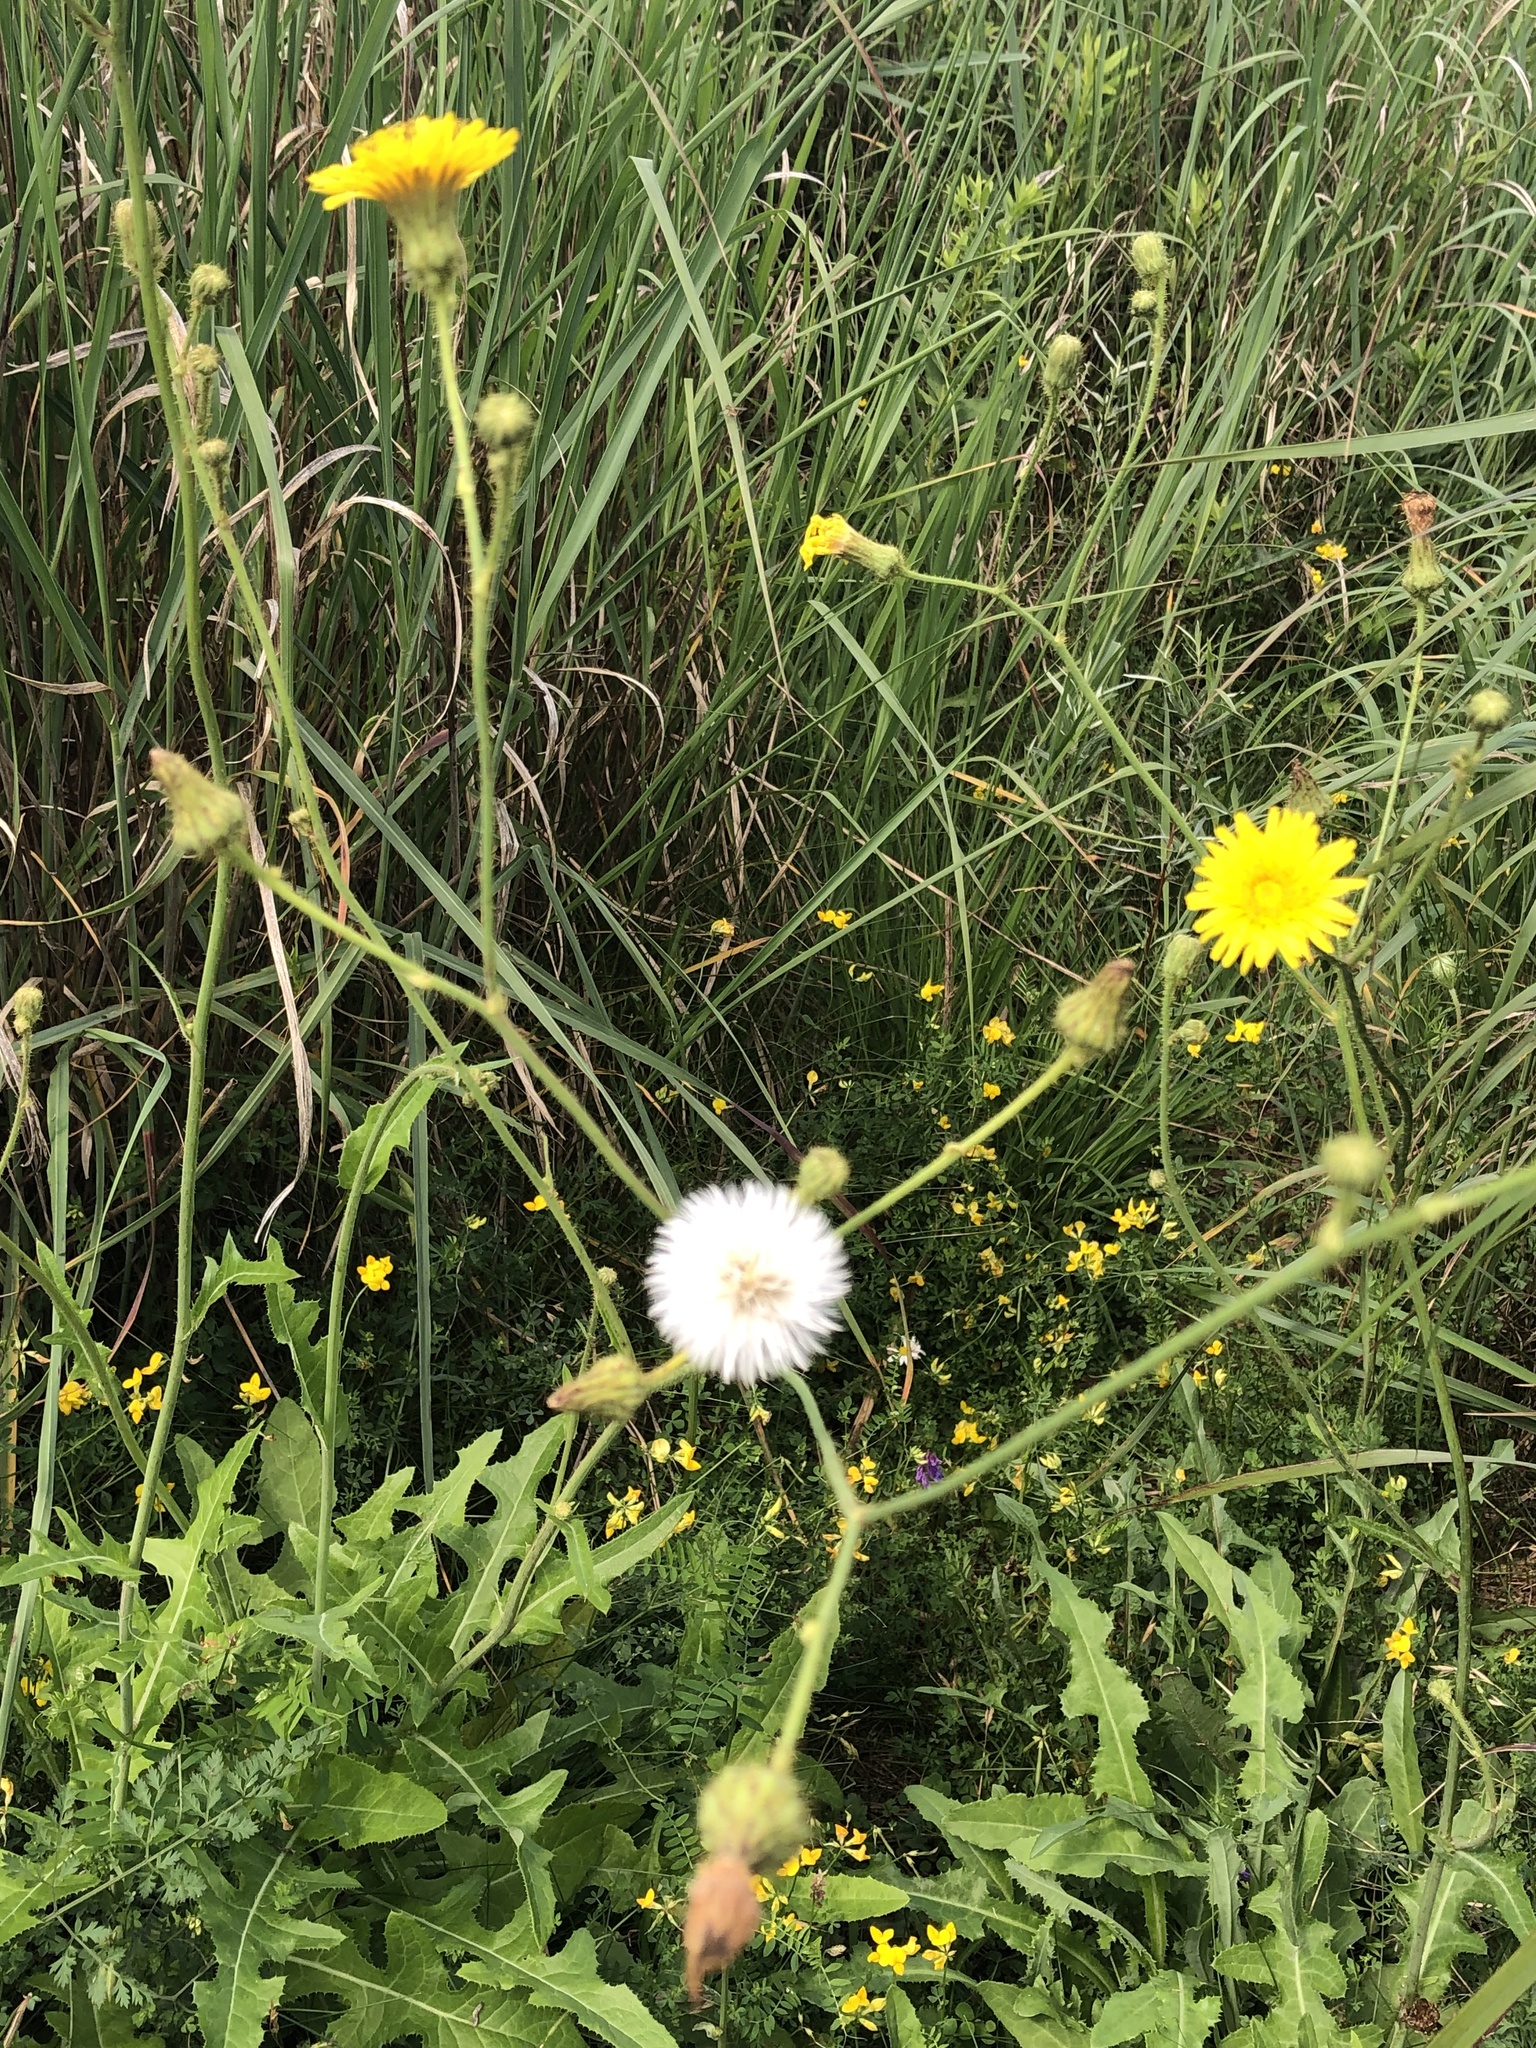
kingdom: Plantae
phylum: Tracheophyta
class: Magnoliopsida
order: Asterales
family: Asteraceae
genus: Sonchus
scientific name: Sonchus arvensis
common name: Perennial sow-thistle
